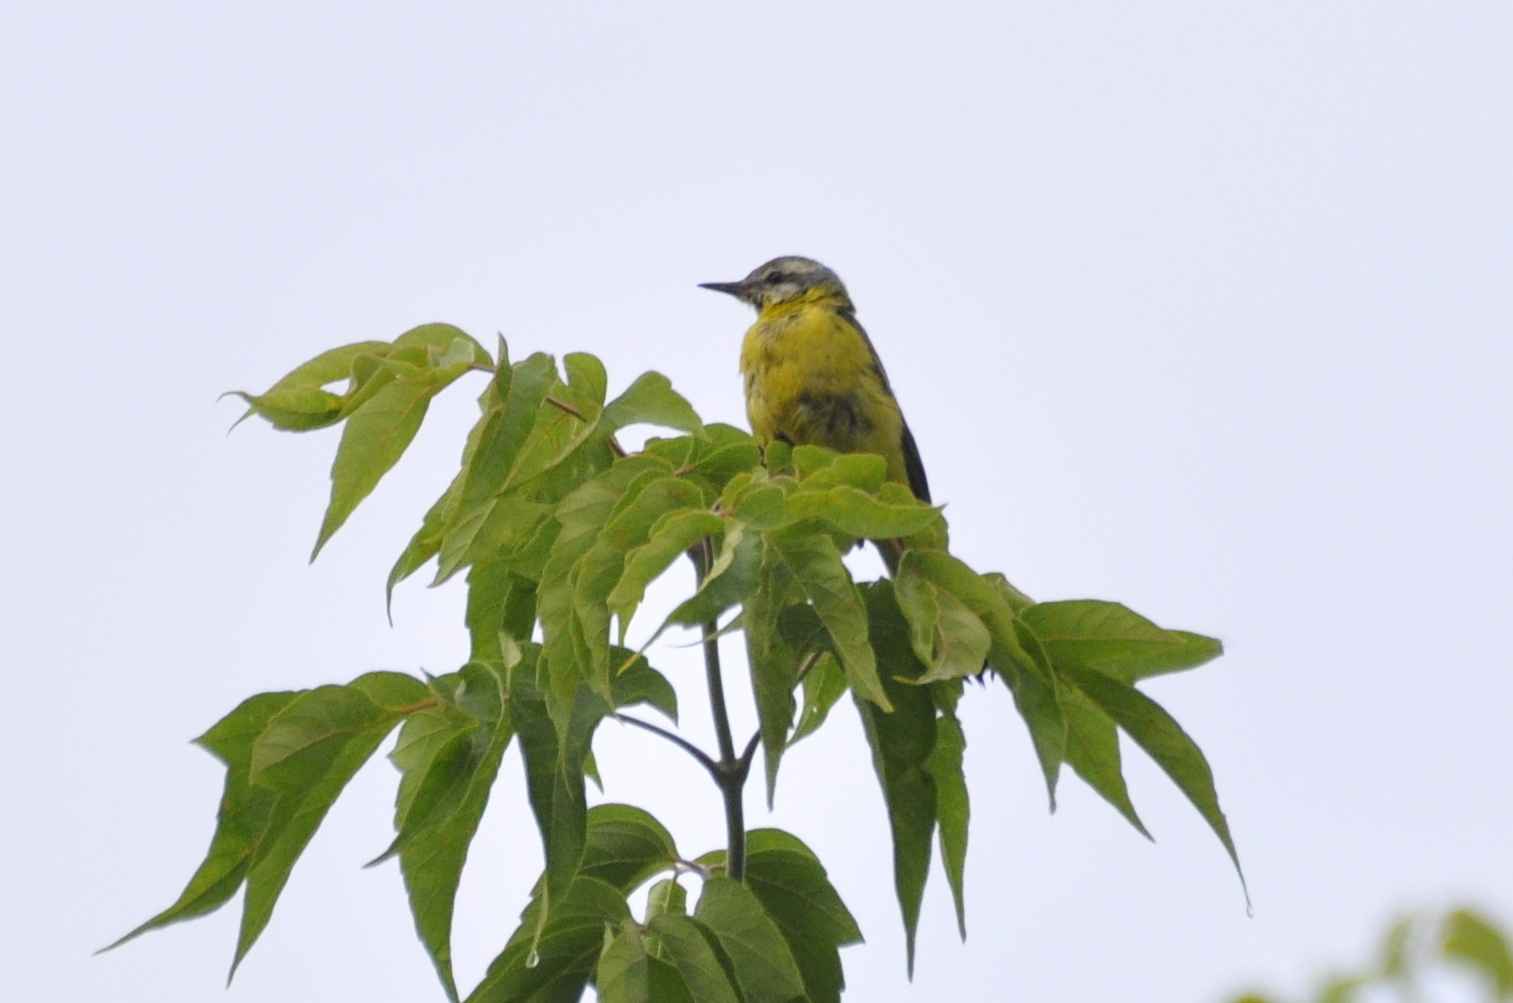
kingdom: Animalia
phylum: Chordata
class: Aves
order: Passeriformes
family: Motacillidae
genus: Motacilla
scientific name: Motacilla flava
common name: Western yellow wagtail
